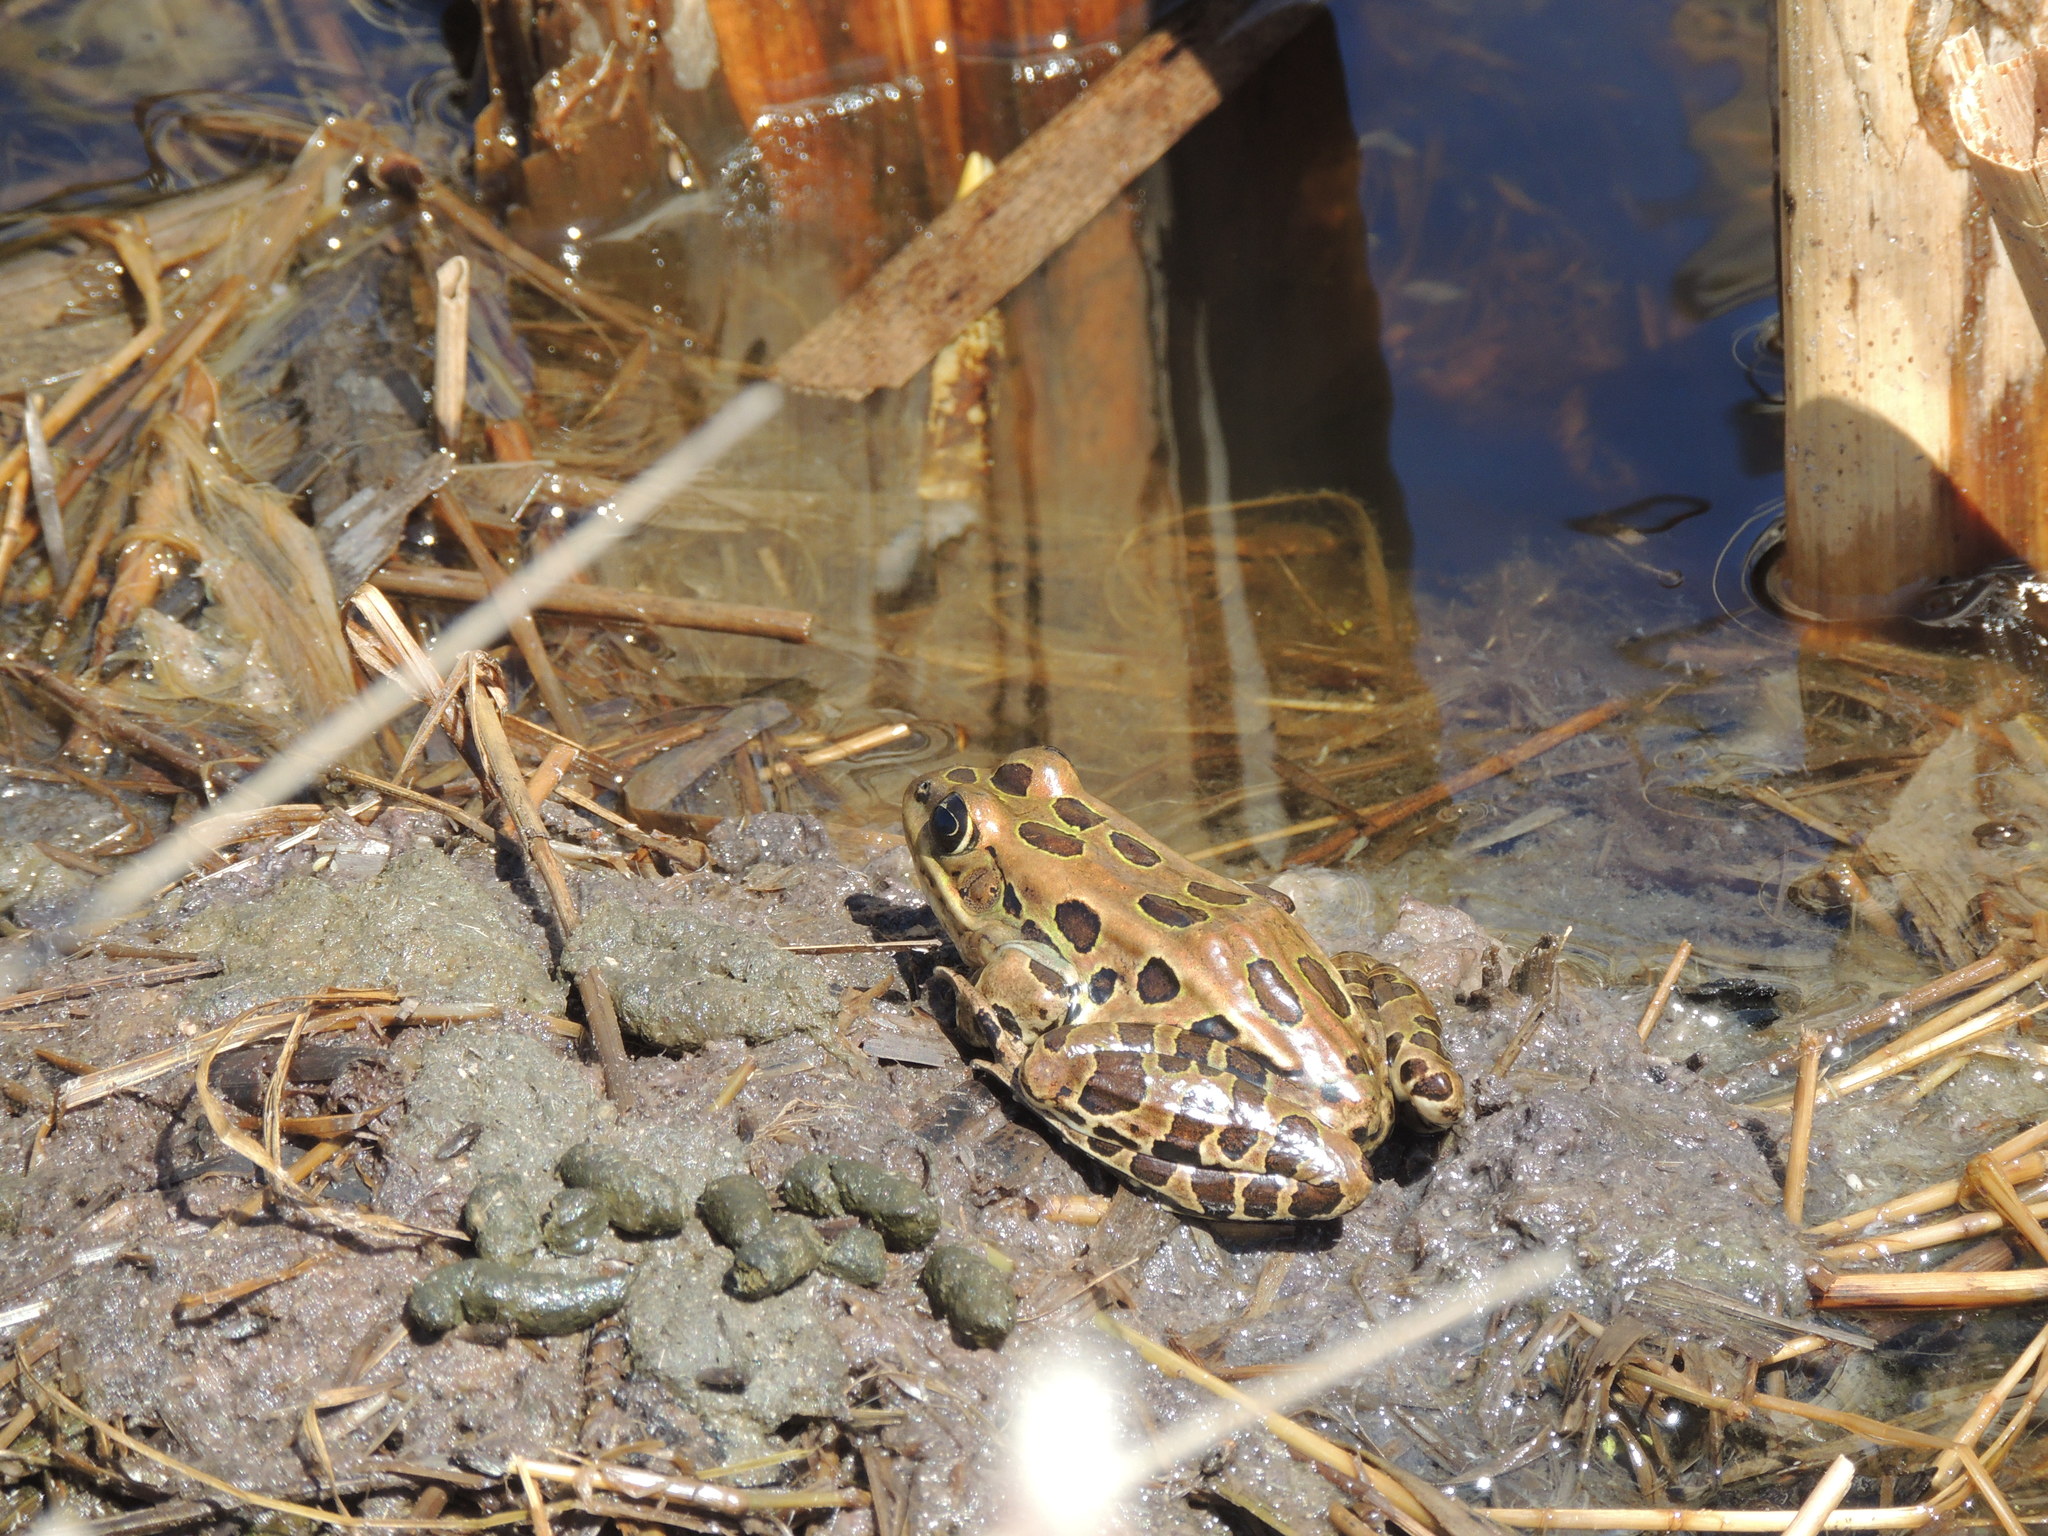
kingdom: Animalia
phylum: Chordata
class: Amphibia
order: Anura
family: Ranidae
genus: Lithobates
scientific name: Lithobates pipiens
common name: Northern leopard frog
